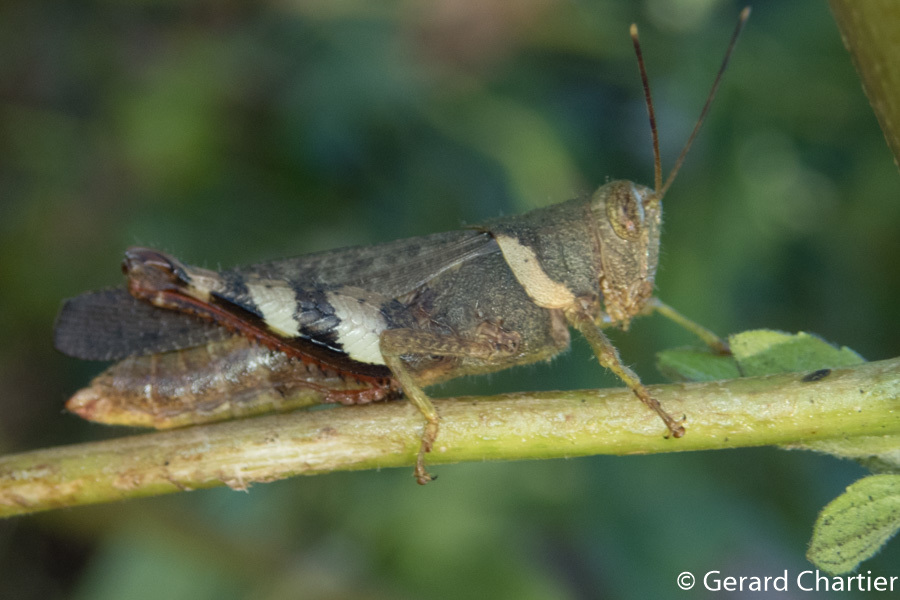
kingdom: Animalia
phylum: Arthropoda
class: Insecta
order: Orthoptera
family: Acrididae
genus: Apalacris
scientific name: Apalacris varicornis
